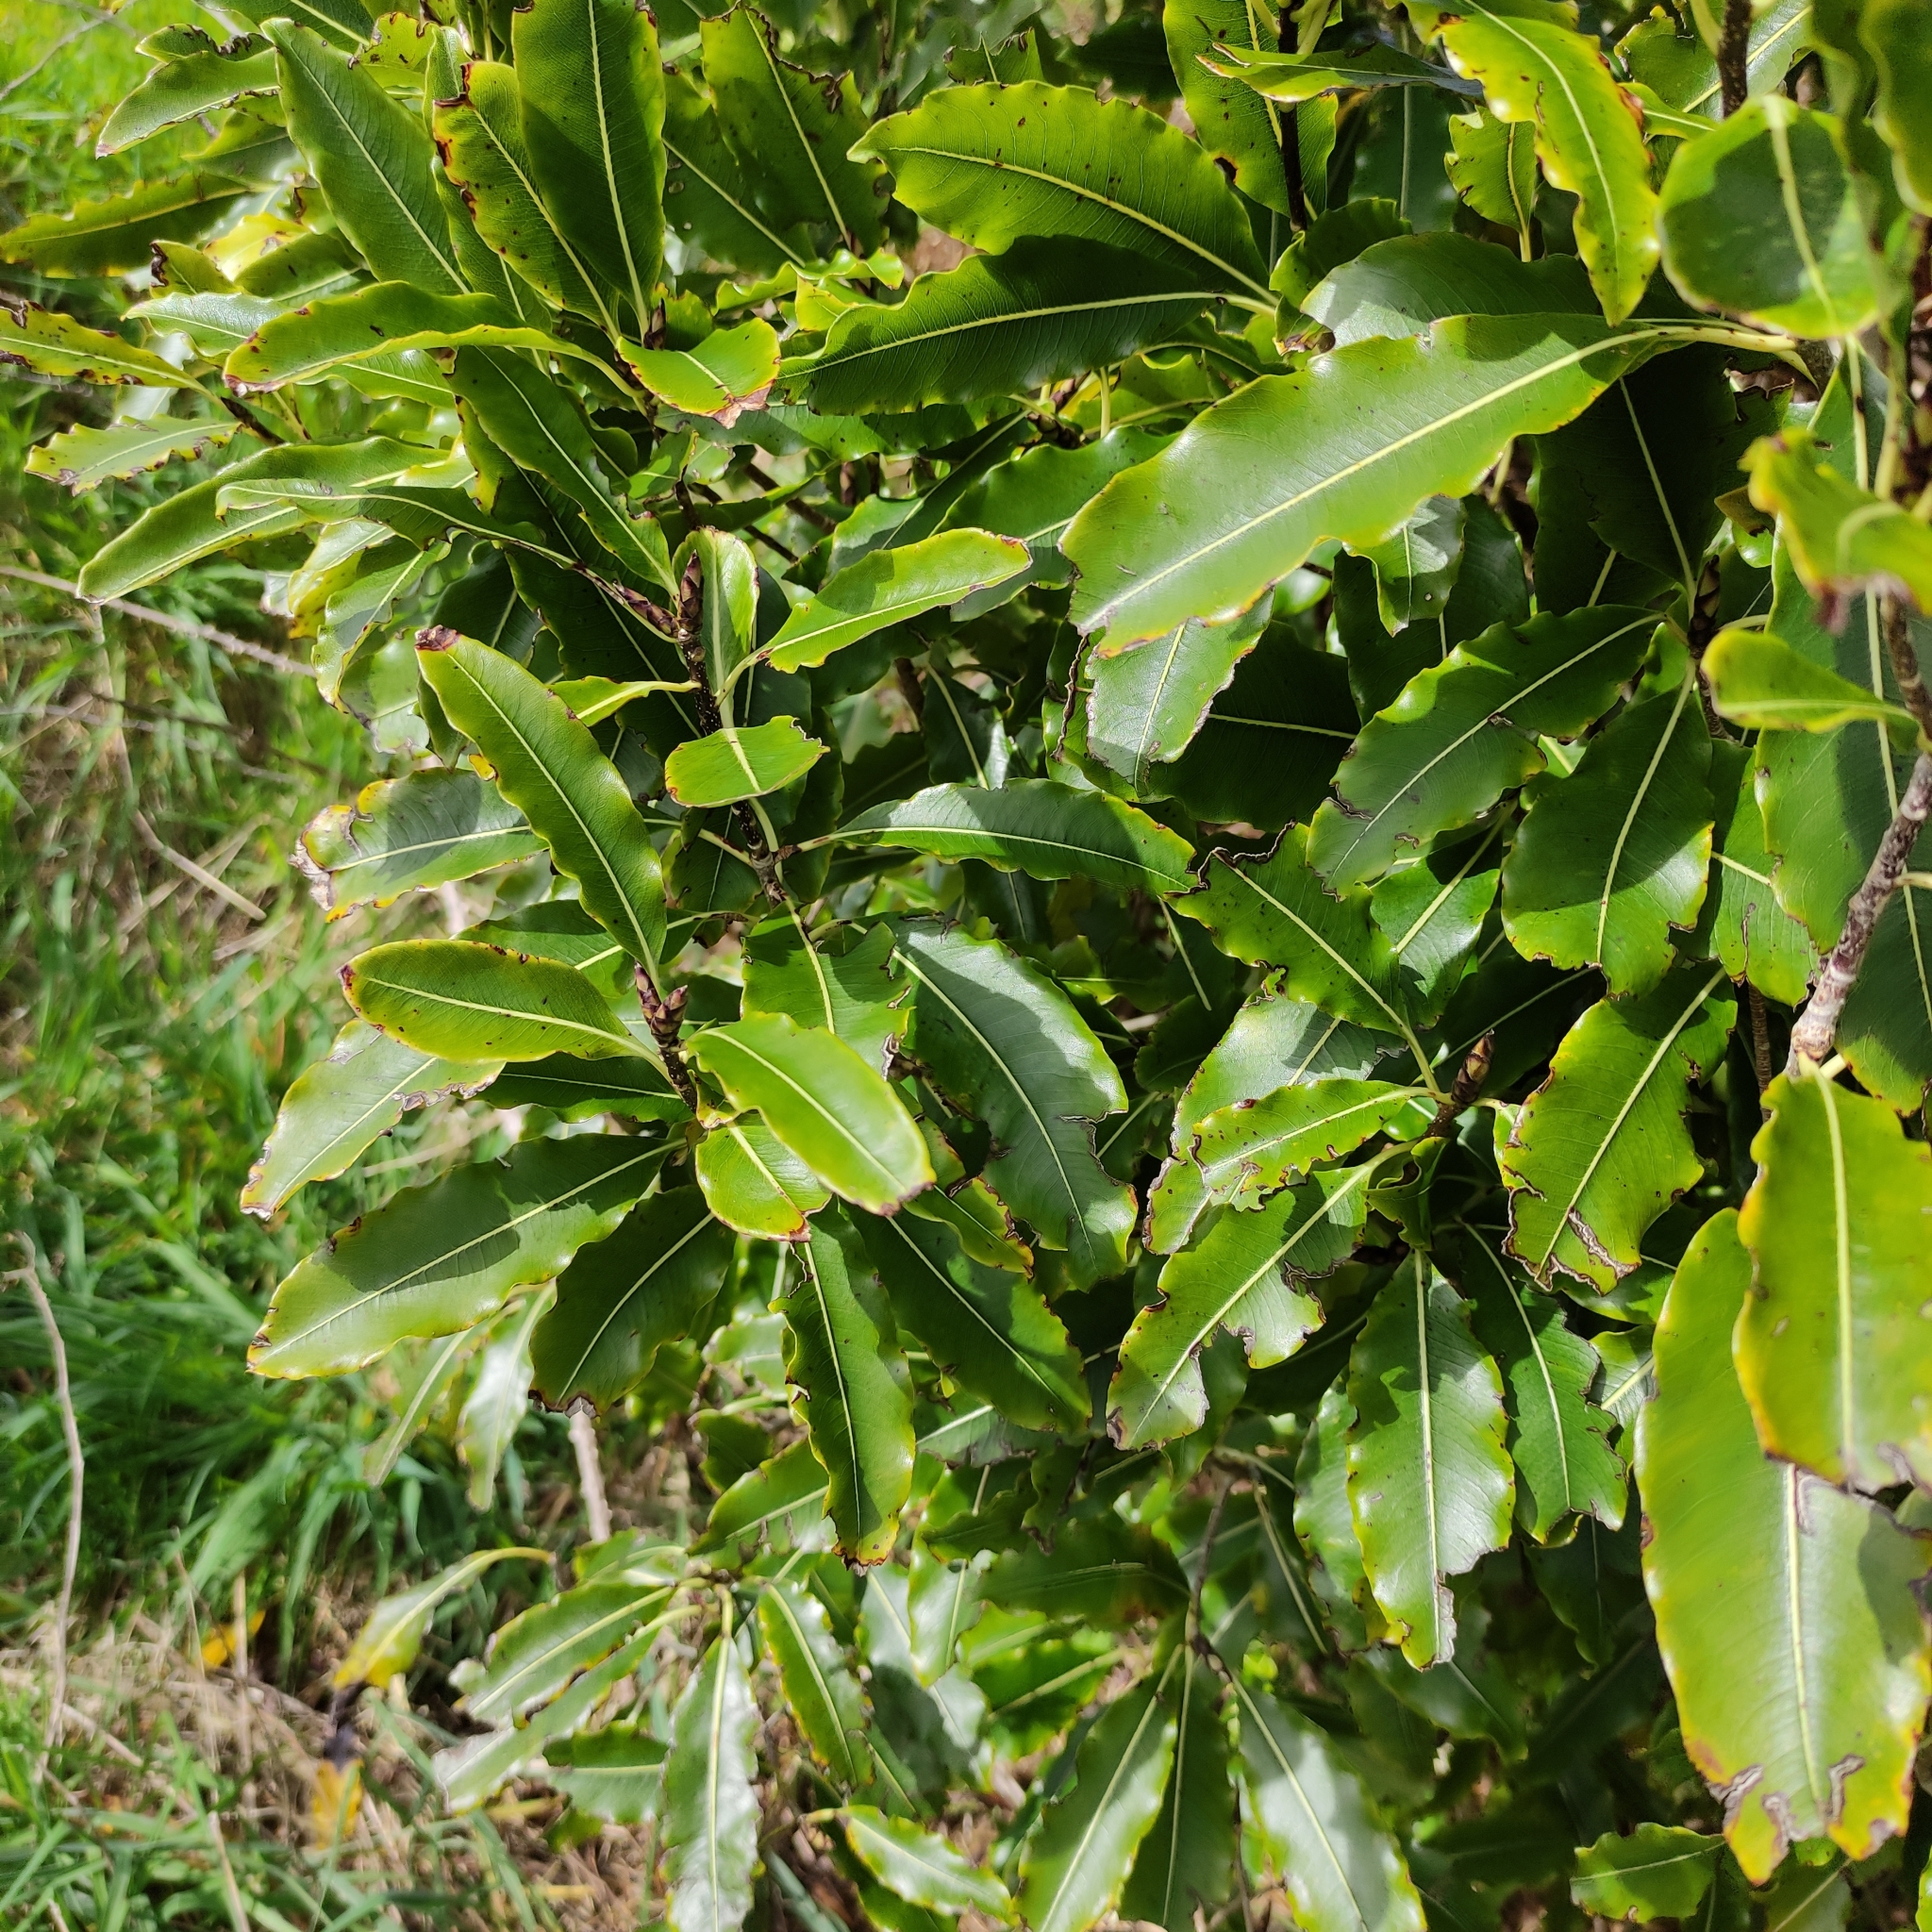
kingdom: Plantae
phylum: Tracheophyta
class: Magnoliopsida
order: Apiales
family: Pittosporaceae
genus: Pittosporum
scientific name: Pittosporum eugenioides
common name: Lemonwood
